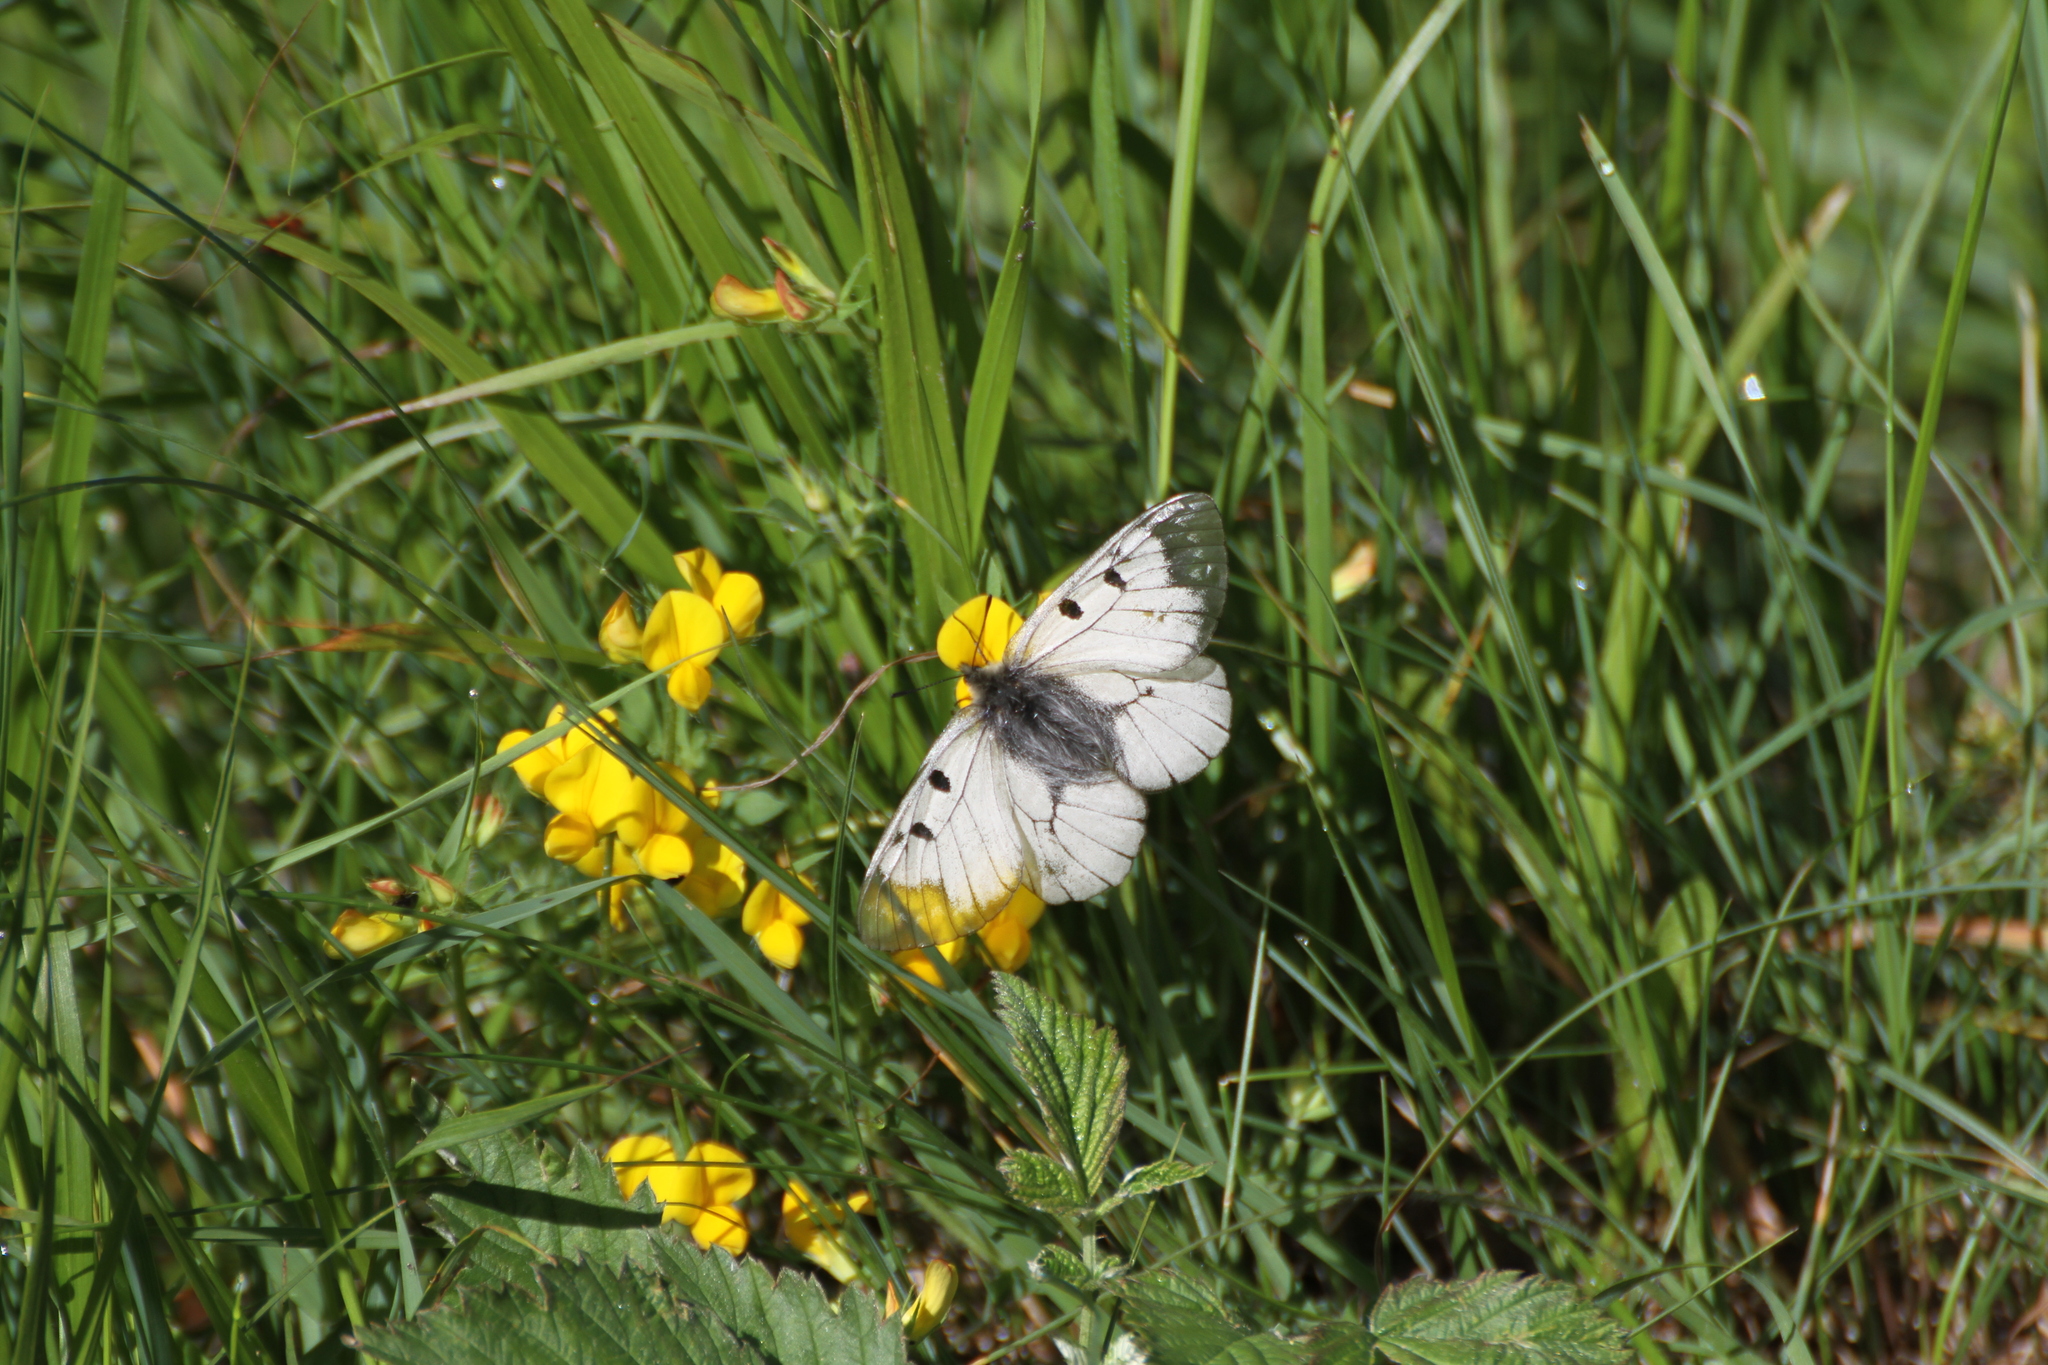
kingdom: Animalia
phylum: Arthropoda
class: Insecta
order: Lepidoptera
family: Papilionidae
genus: Parnassius
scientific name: Parnassius mnemosyne
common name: Clouded apollo
